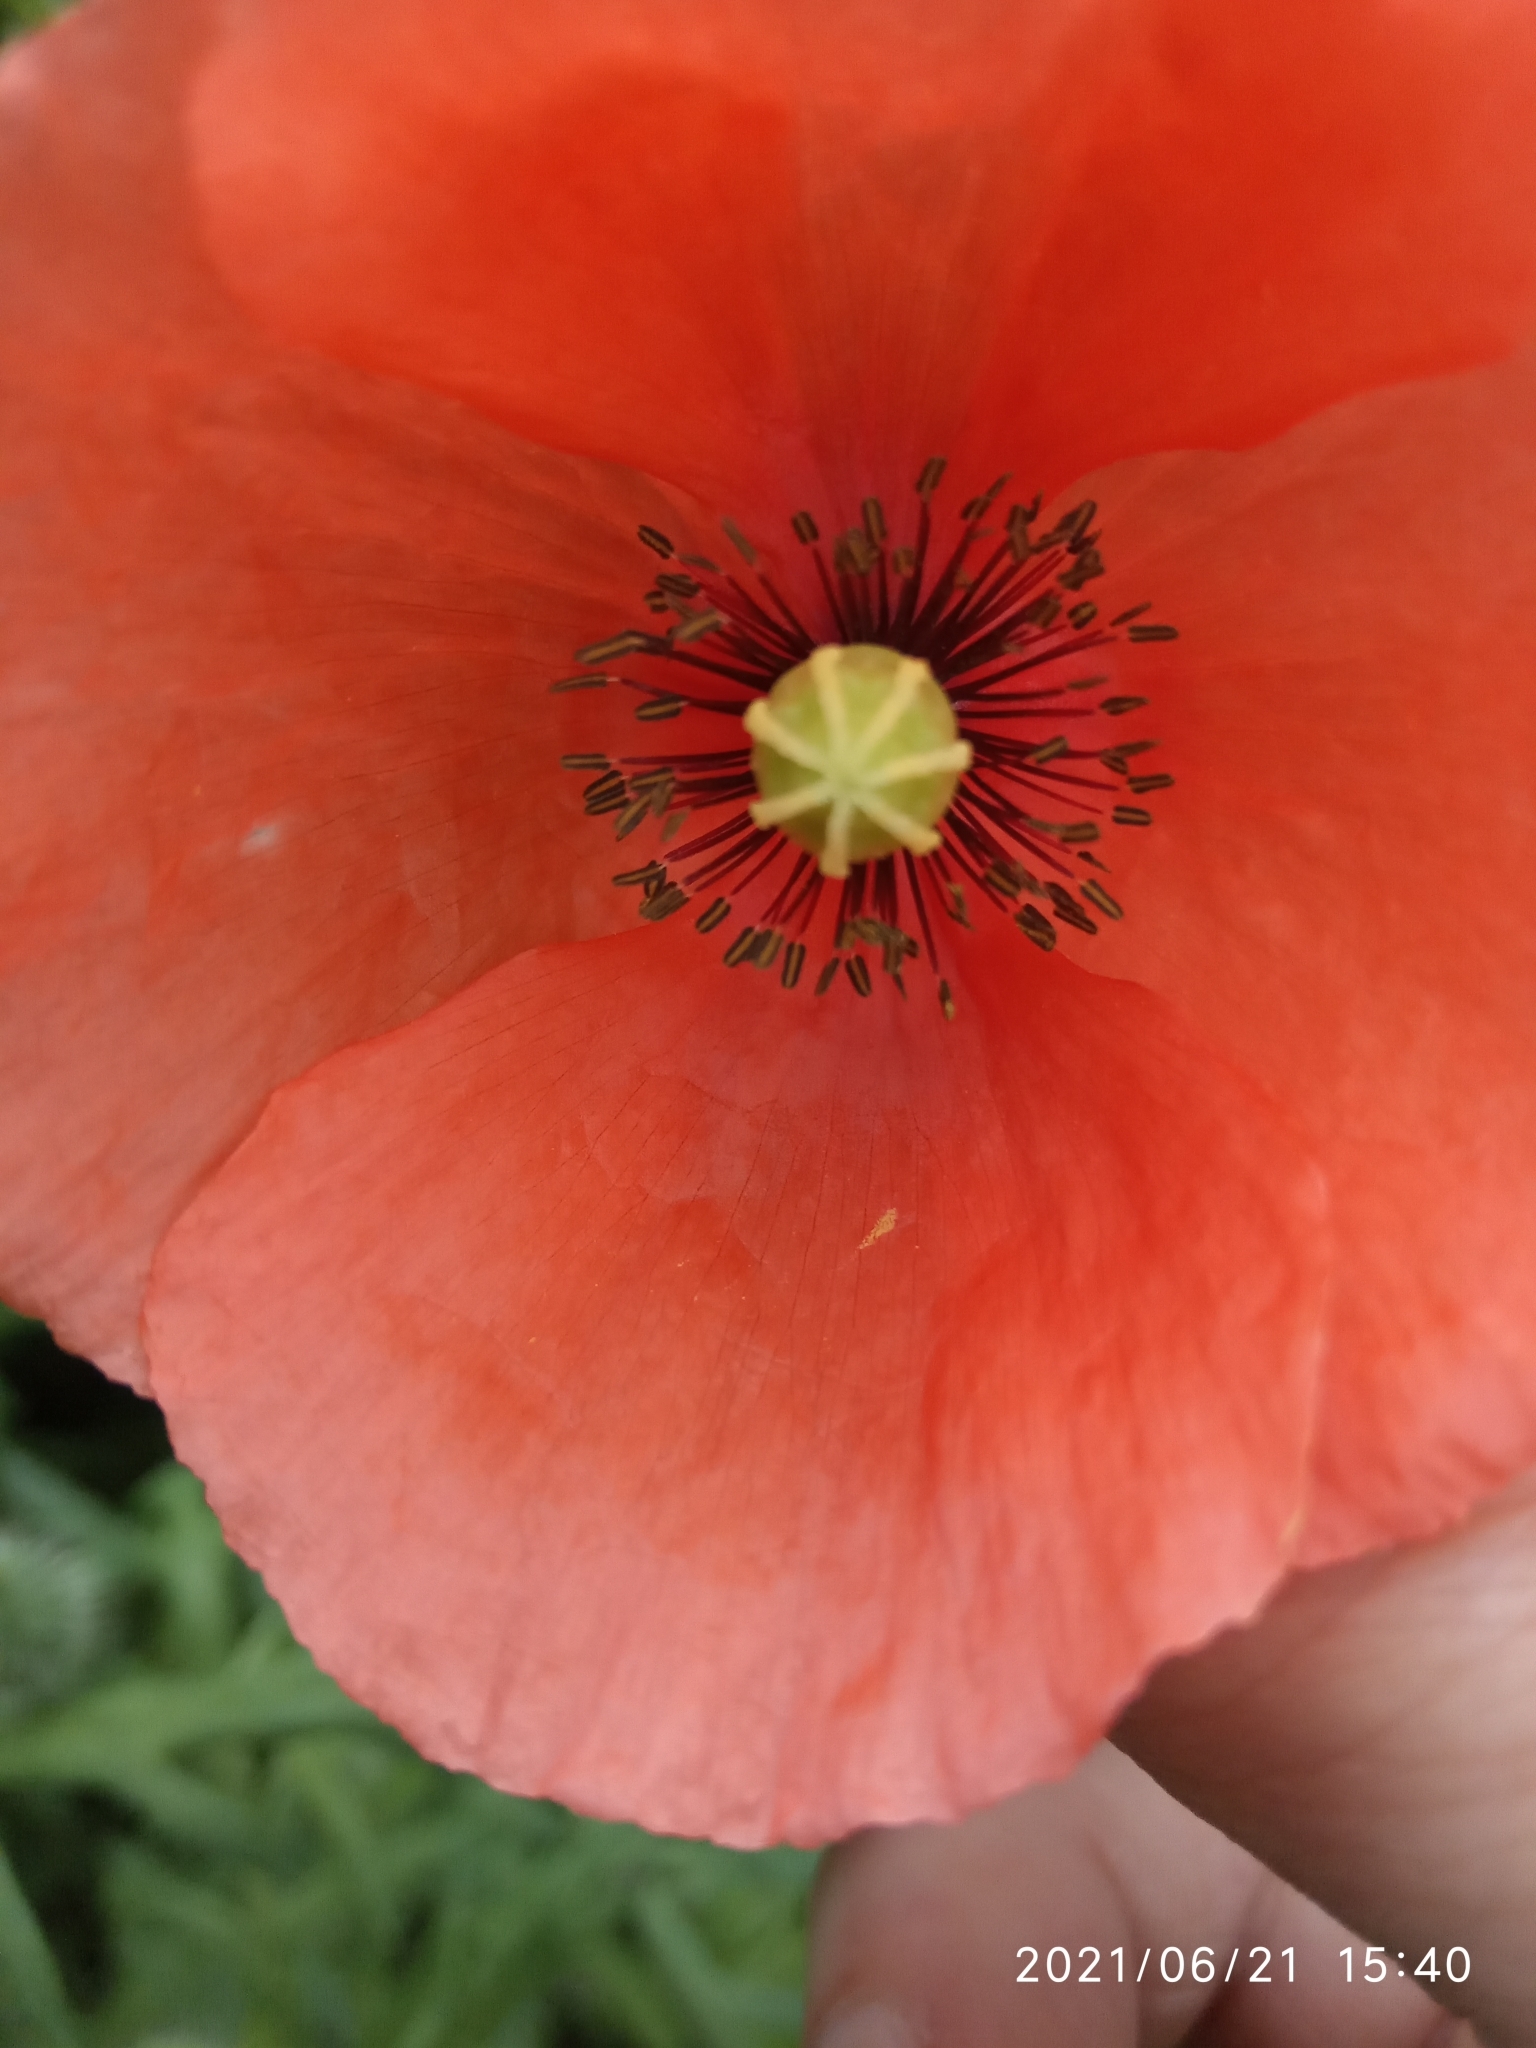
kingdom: Plantae
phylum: Tracheophyta
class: Magnoliopsida
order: Ranunculales
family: Papaveraceae
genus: Papaver
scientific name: Papaver dubium
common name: Long-headed poppy
